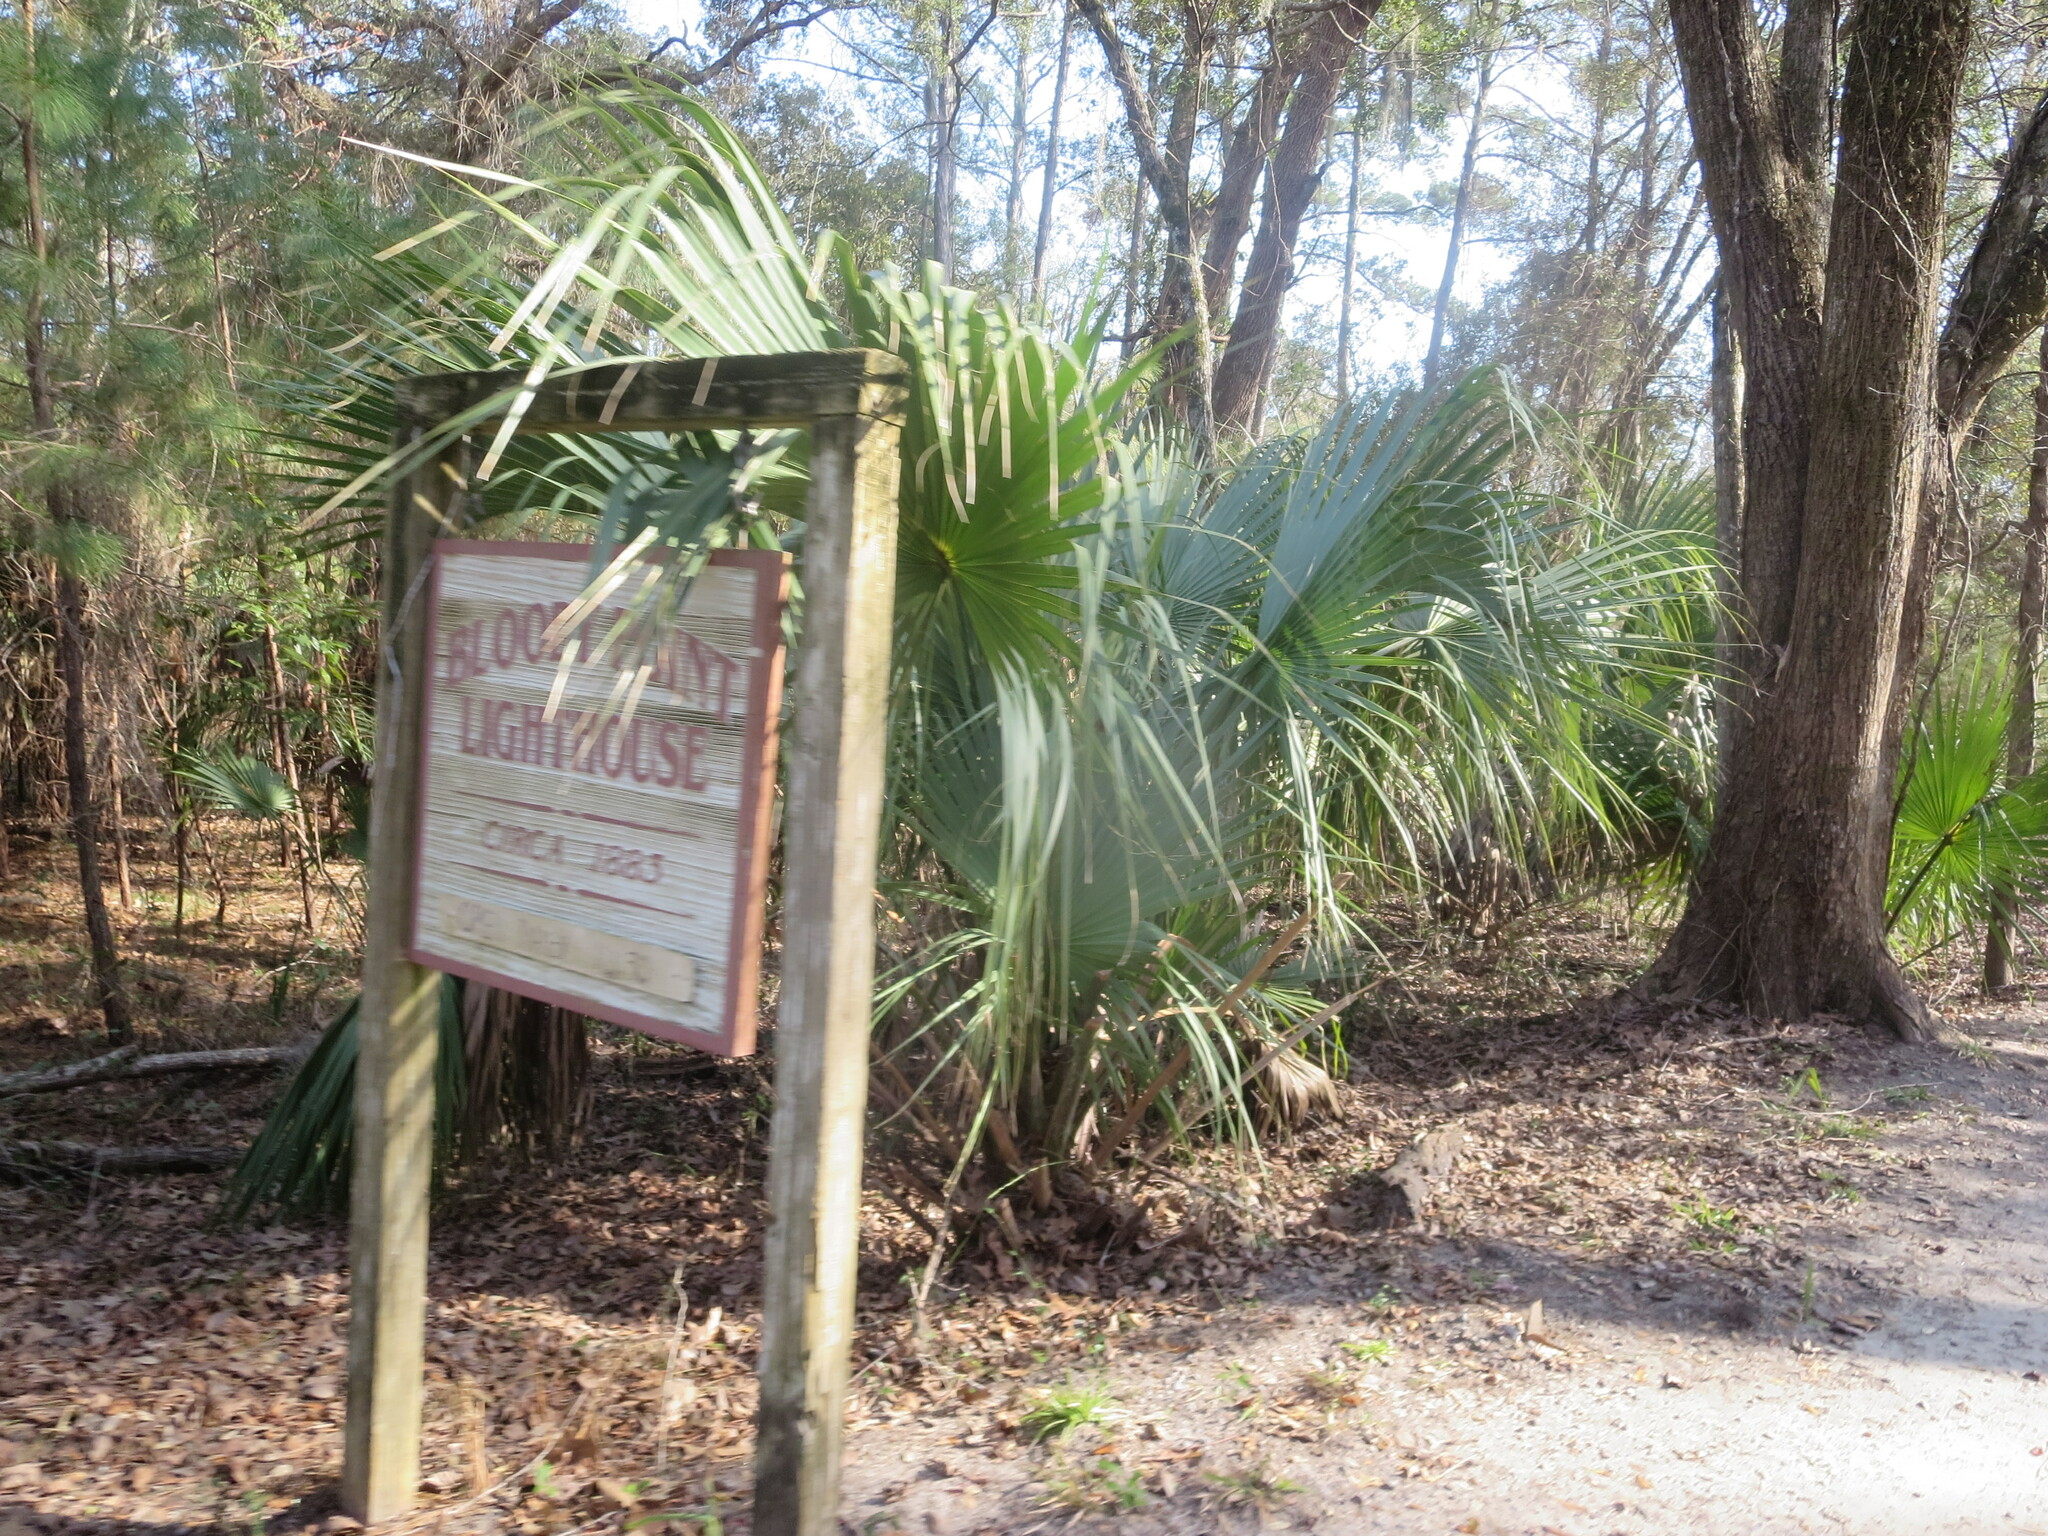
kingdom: Plantae
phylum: Tracheophyta
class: Liliopsida
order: Arecales
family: Arecaceae
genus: Sabal
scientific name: Sabal palmetto
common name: Blue palmetto
